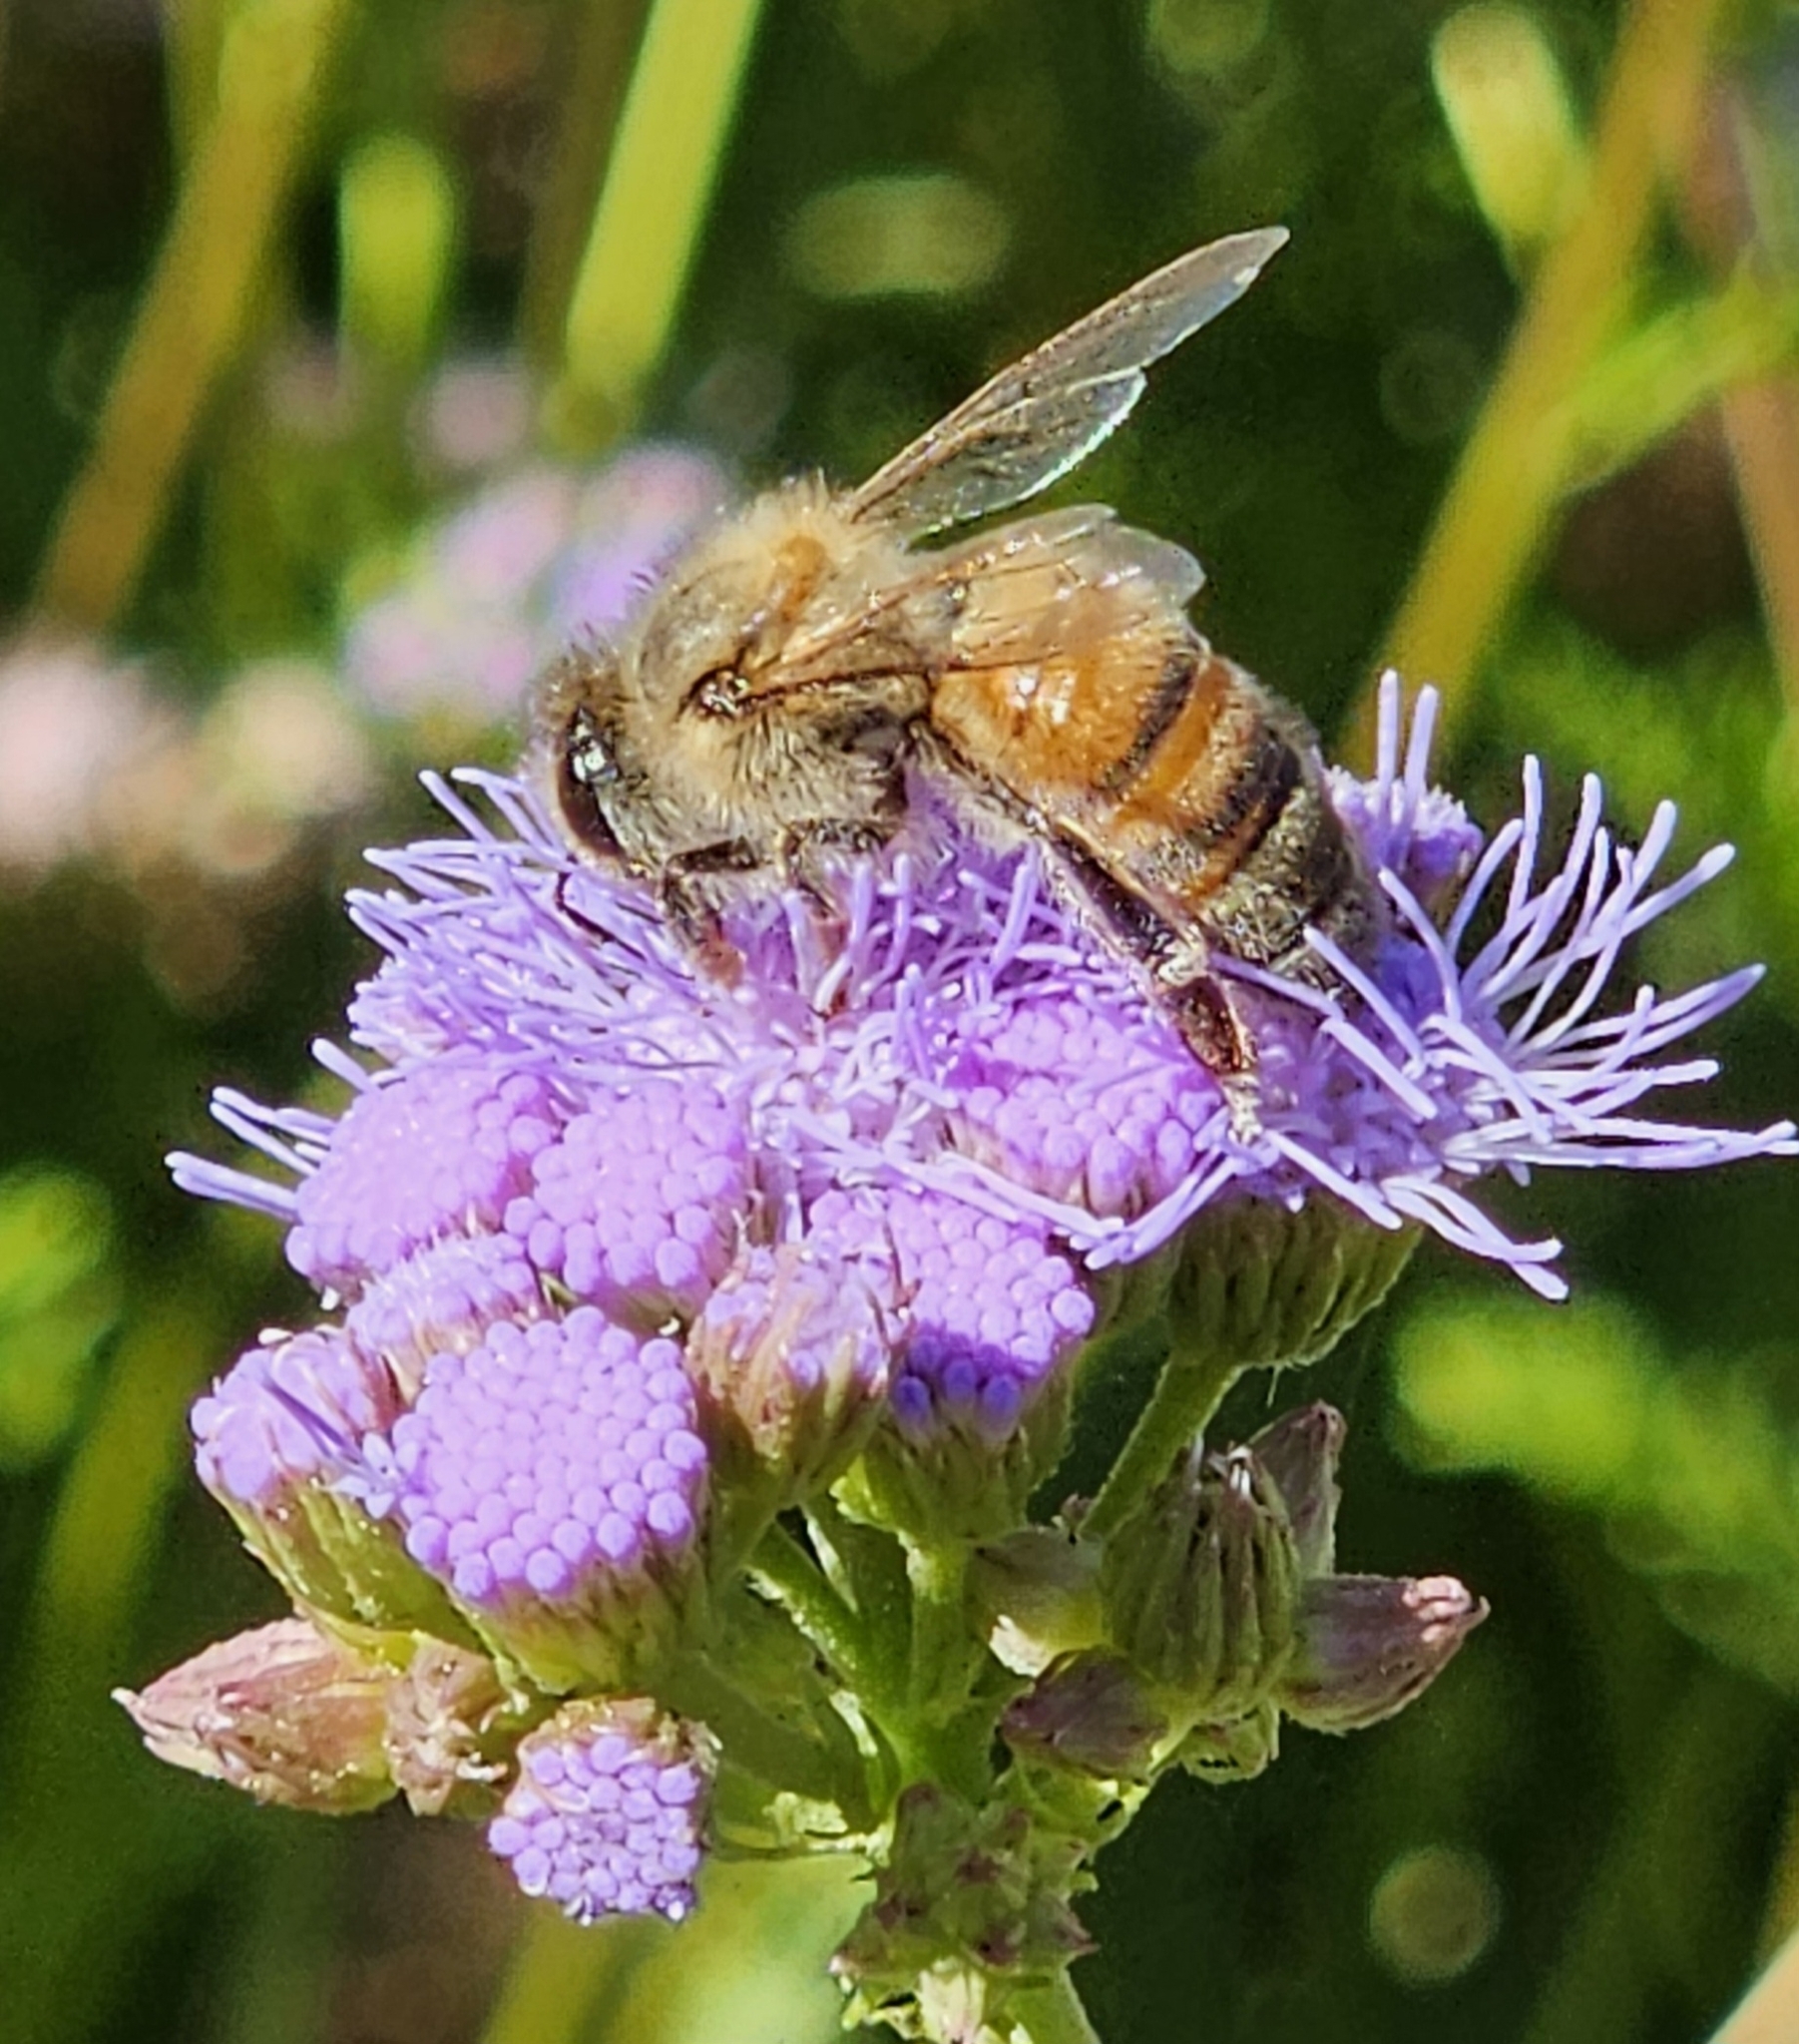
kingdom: Animalia
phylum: Arthropoda
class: Insecta
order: Hymenoptera
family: Apidae
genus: Apis
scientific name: Apis mellifera
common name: Honey bee
